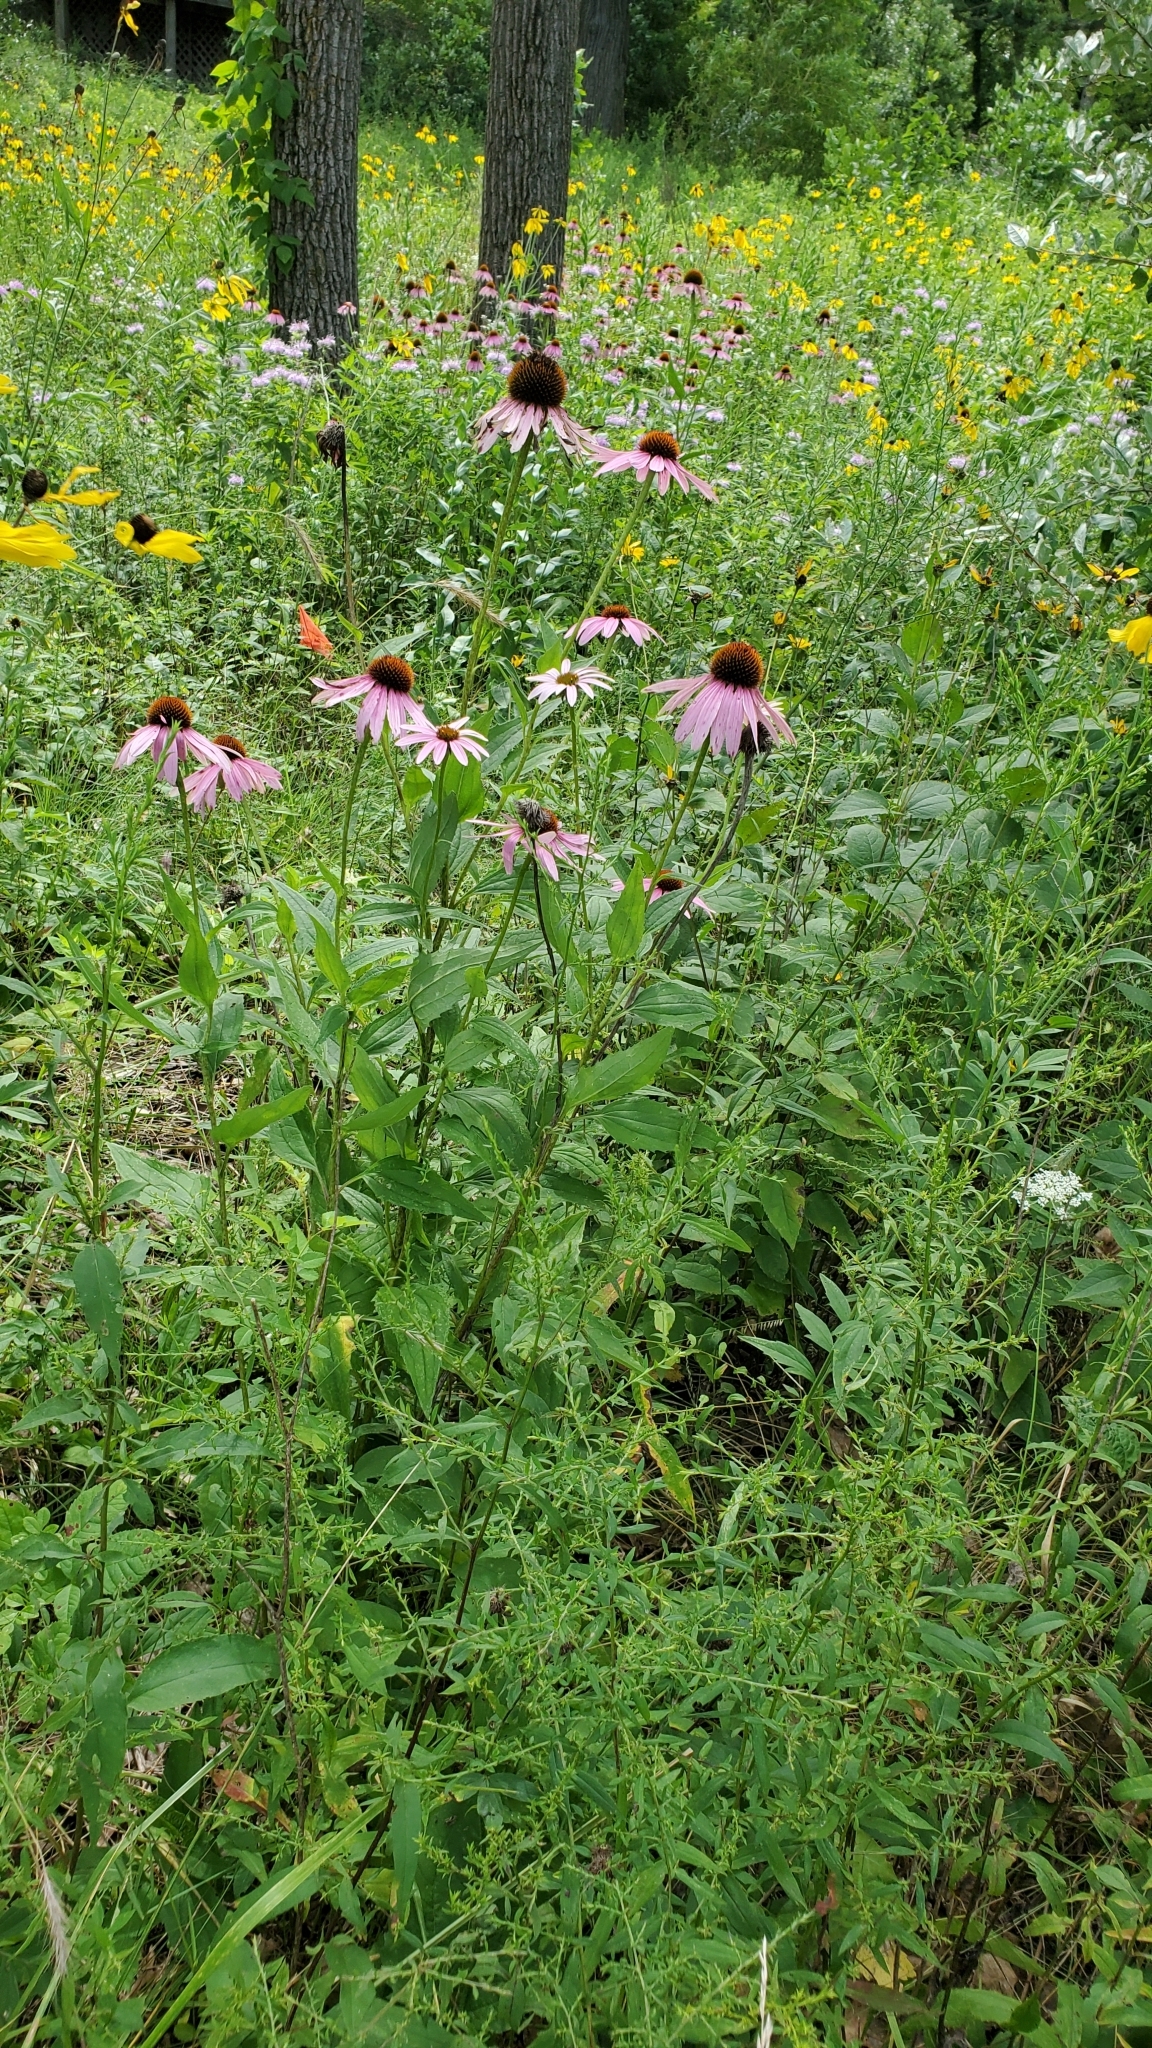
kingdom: Plantae
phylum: Tracheophyta
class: Magnoliopsida
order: Asterales
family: Asteraceae
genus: Echinacea
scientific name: Echinacea purpurea
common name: Broad-leaved purple coneflower
